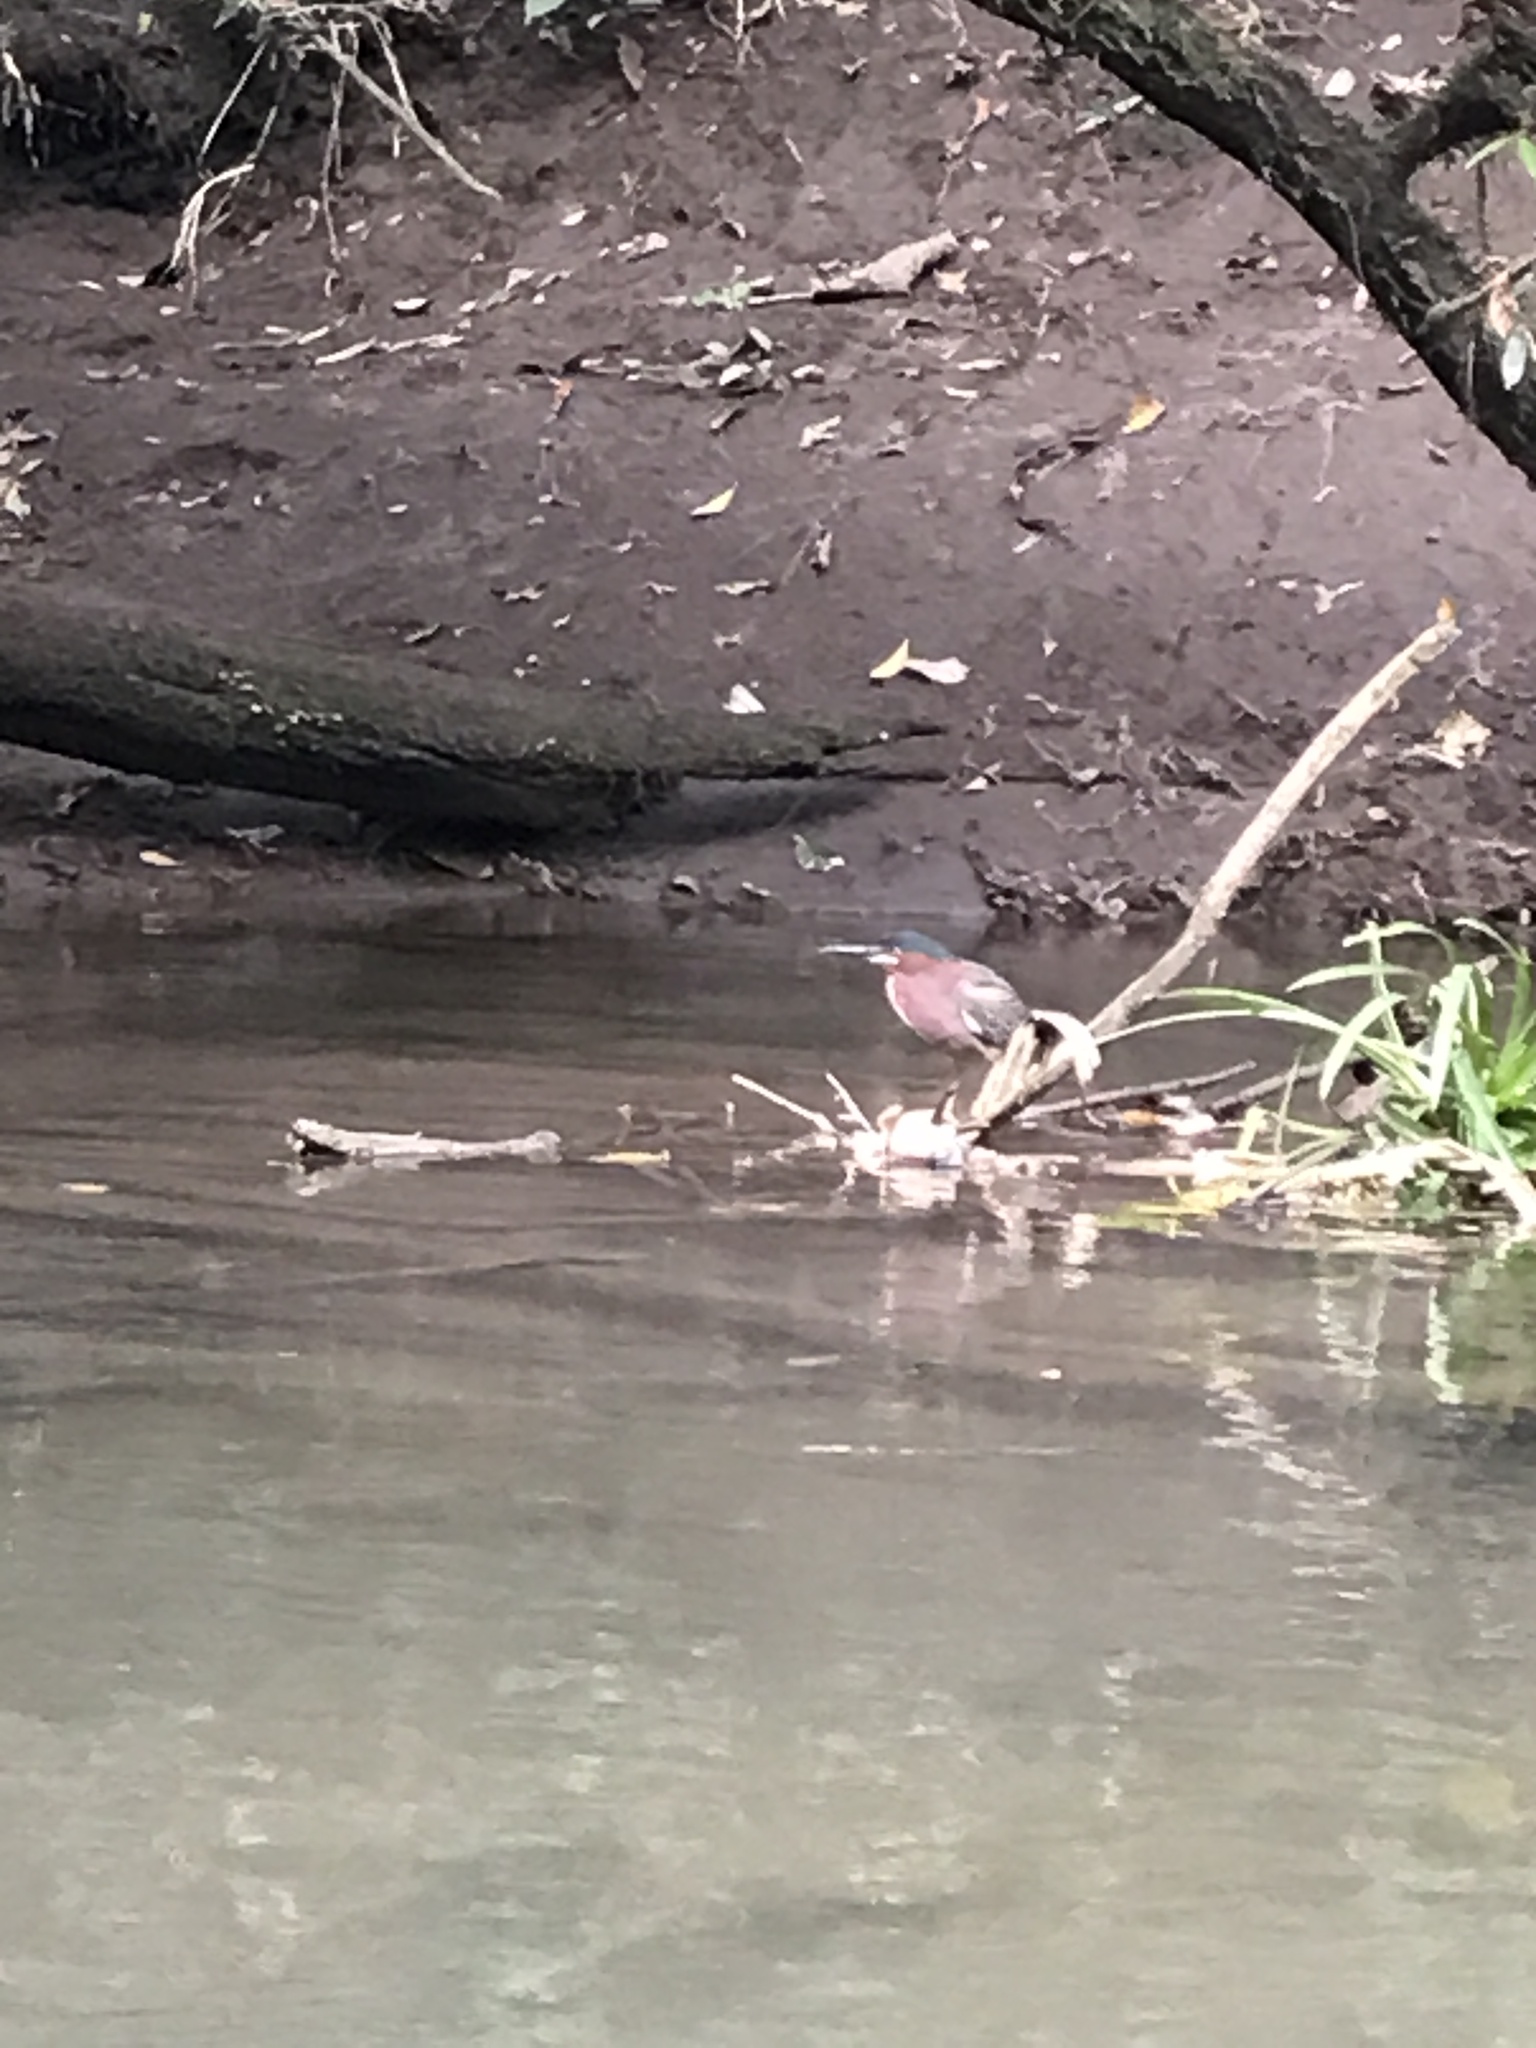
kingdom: Animalia
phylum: Chordata
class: Aves
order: Pelecaniformes
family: Ardeidae
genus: Butorides
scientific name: Butorides virescens
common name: Green heron
